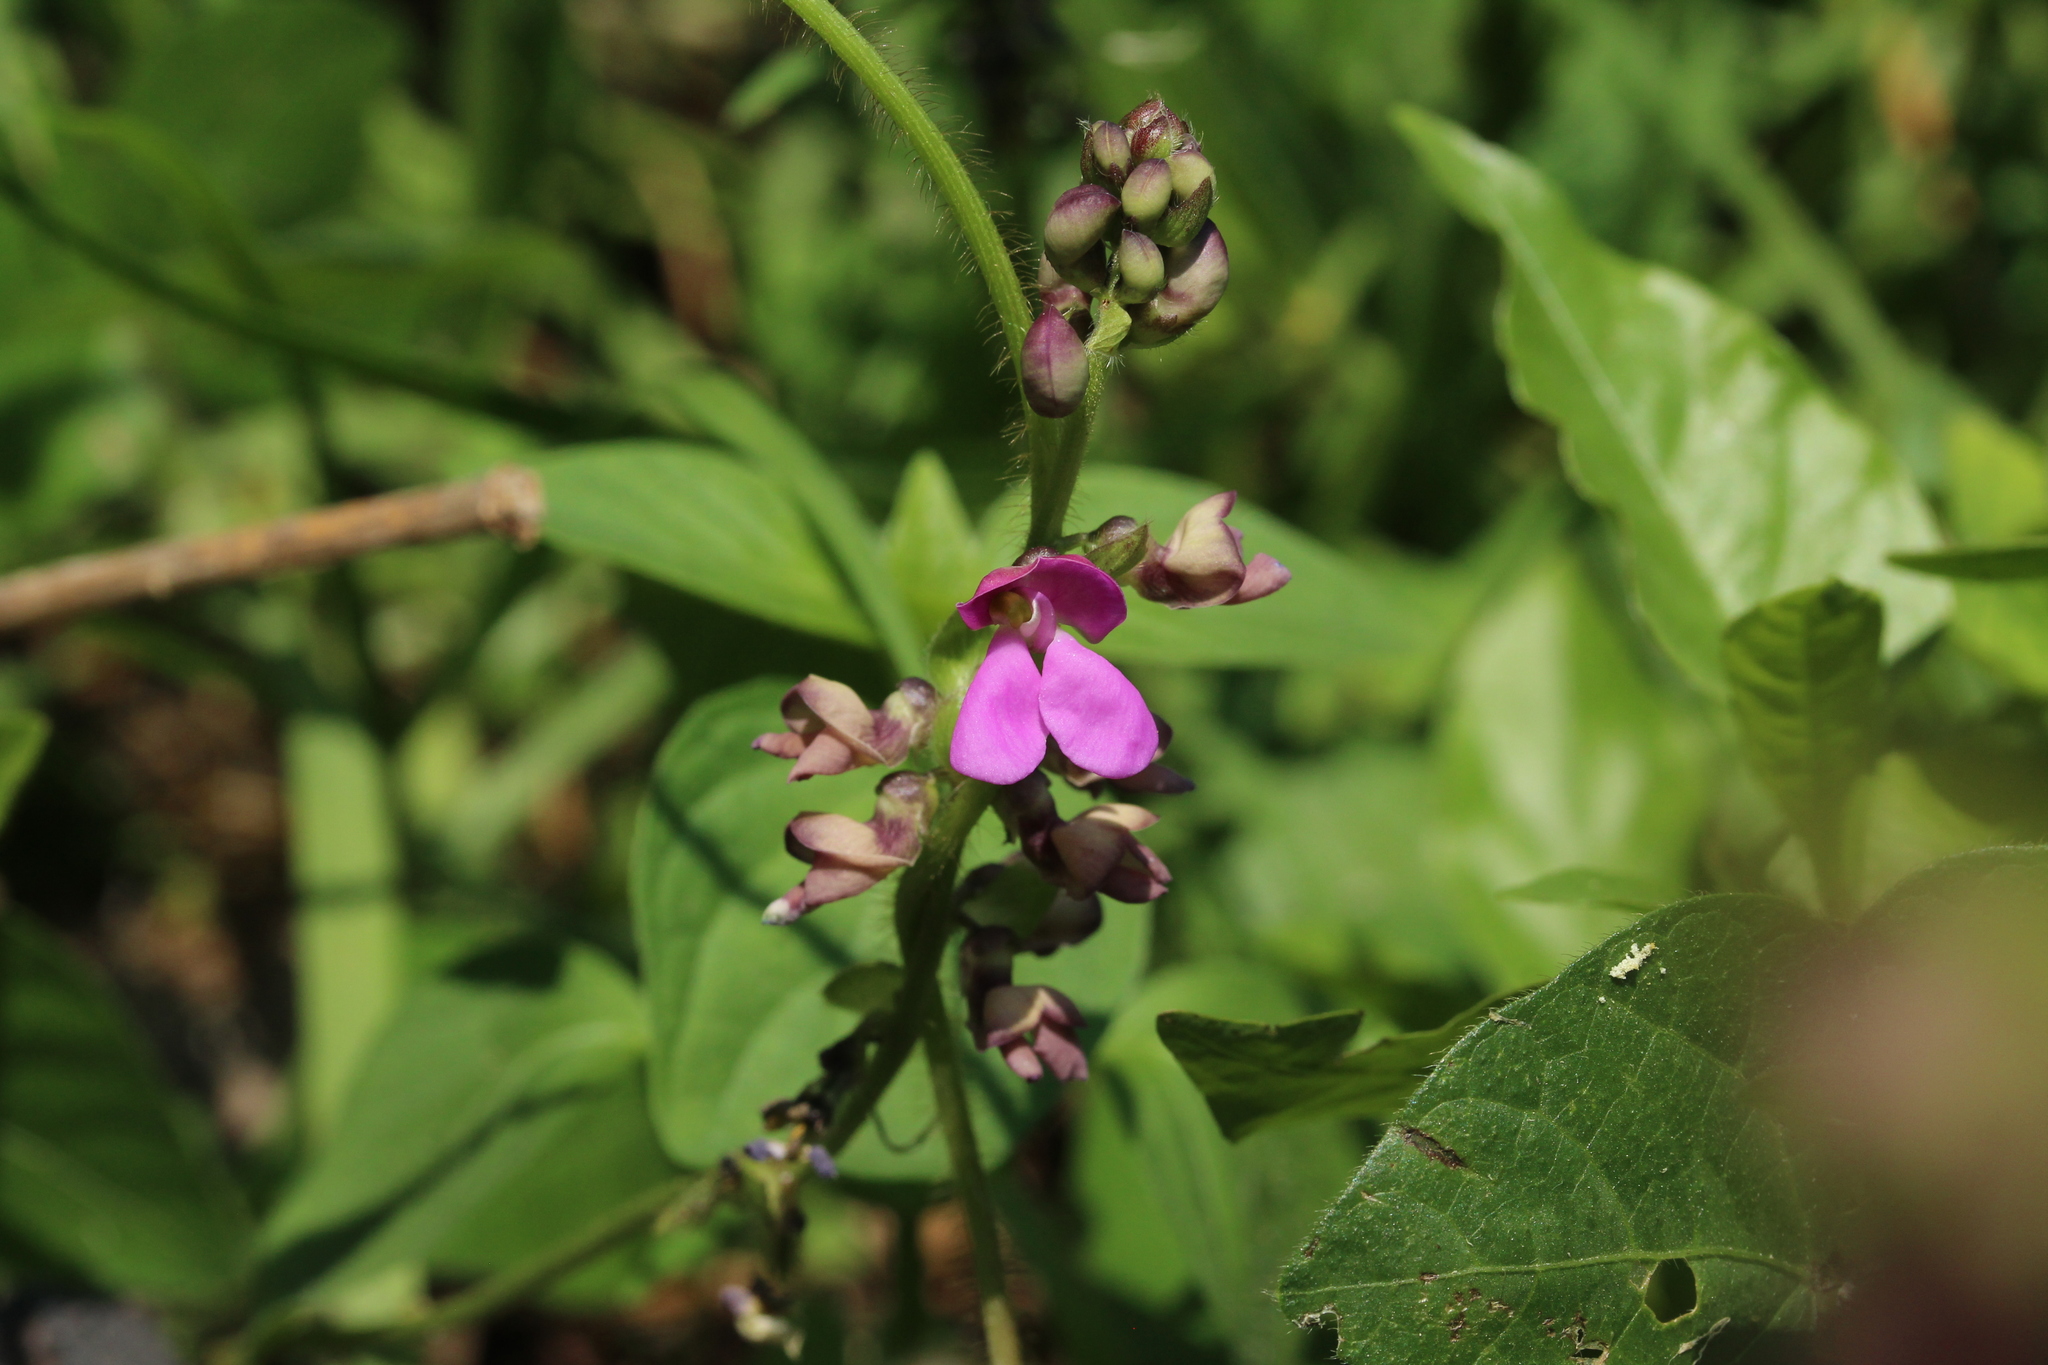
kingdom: Plantae
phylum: Tracheophyta
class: Magnoliopsida
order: Fabales
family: Fabaceae
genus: Phaseolus
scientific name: Phaseolus vulgaris
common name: Bean
